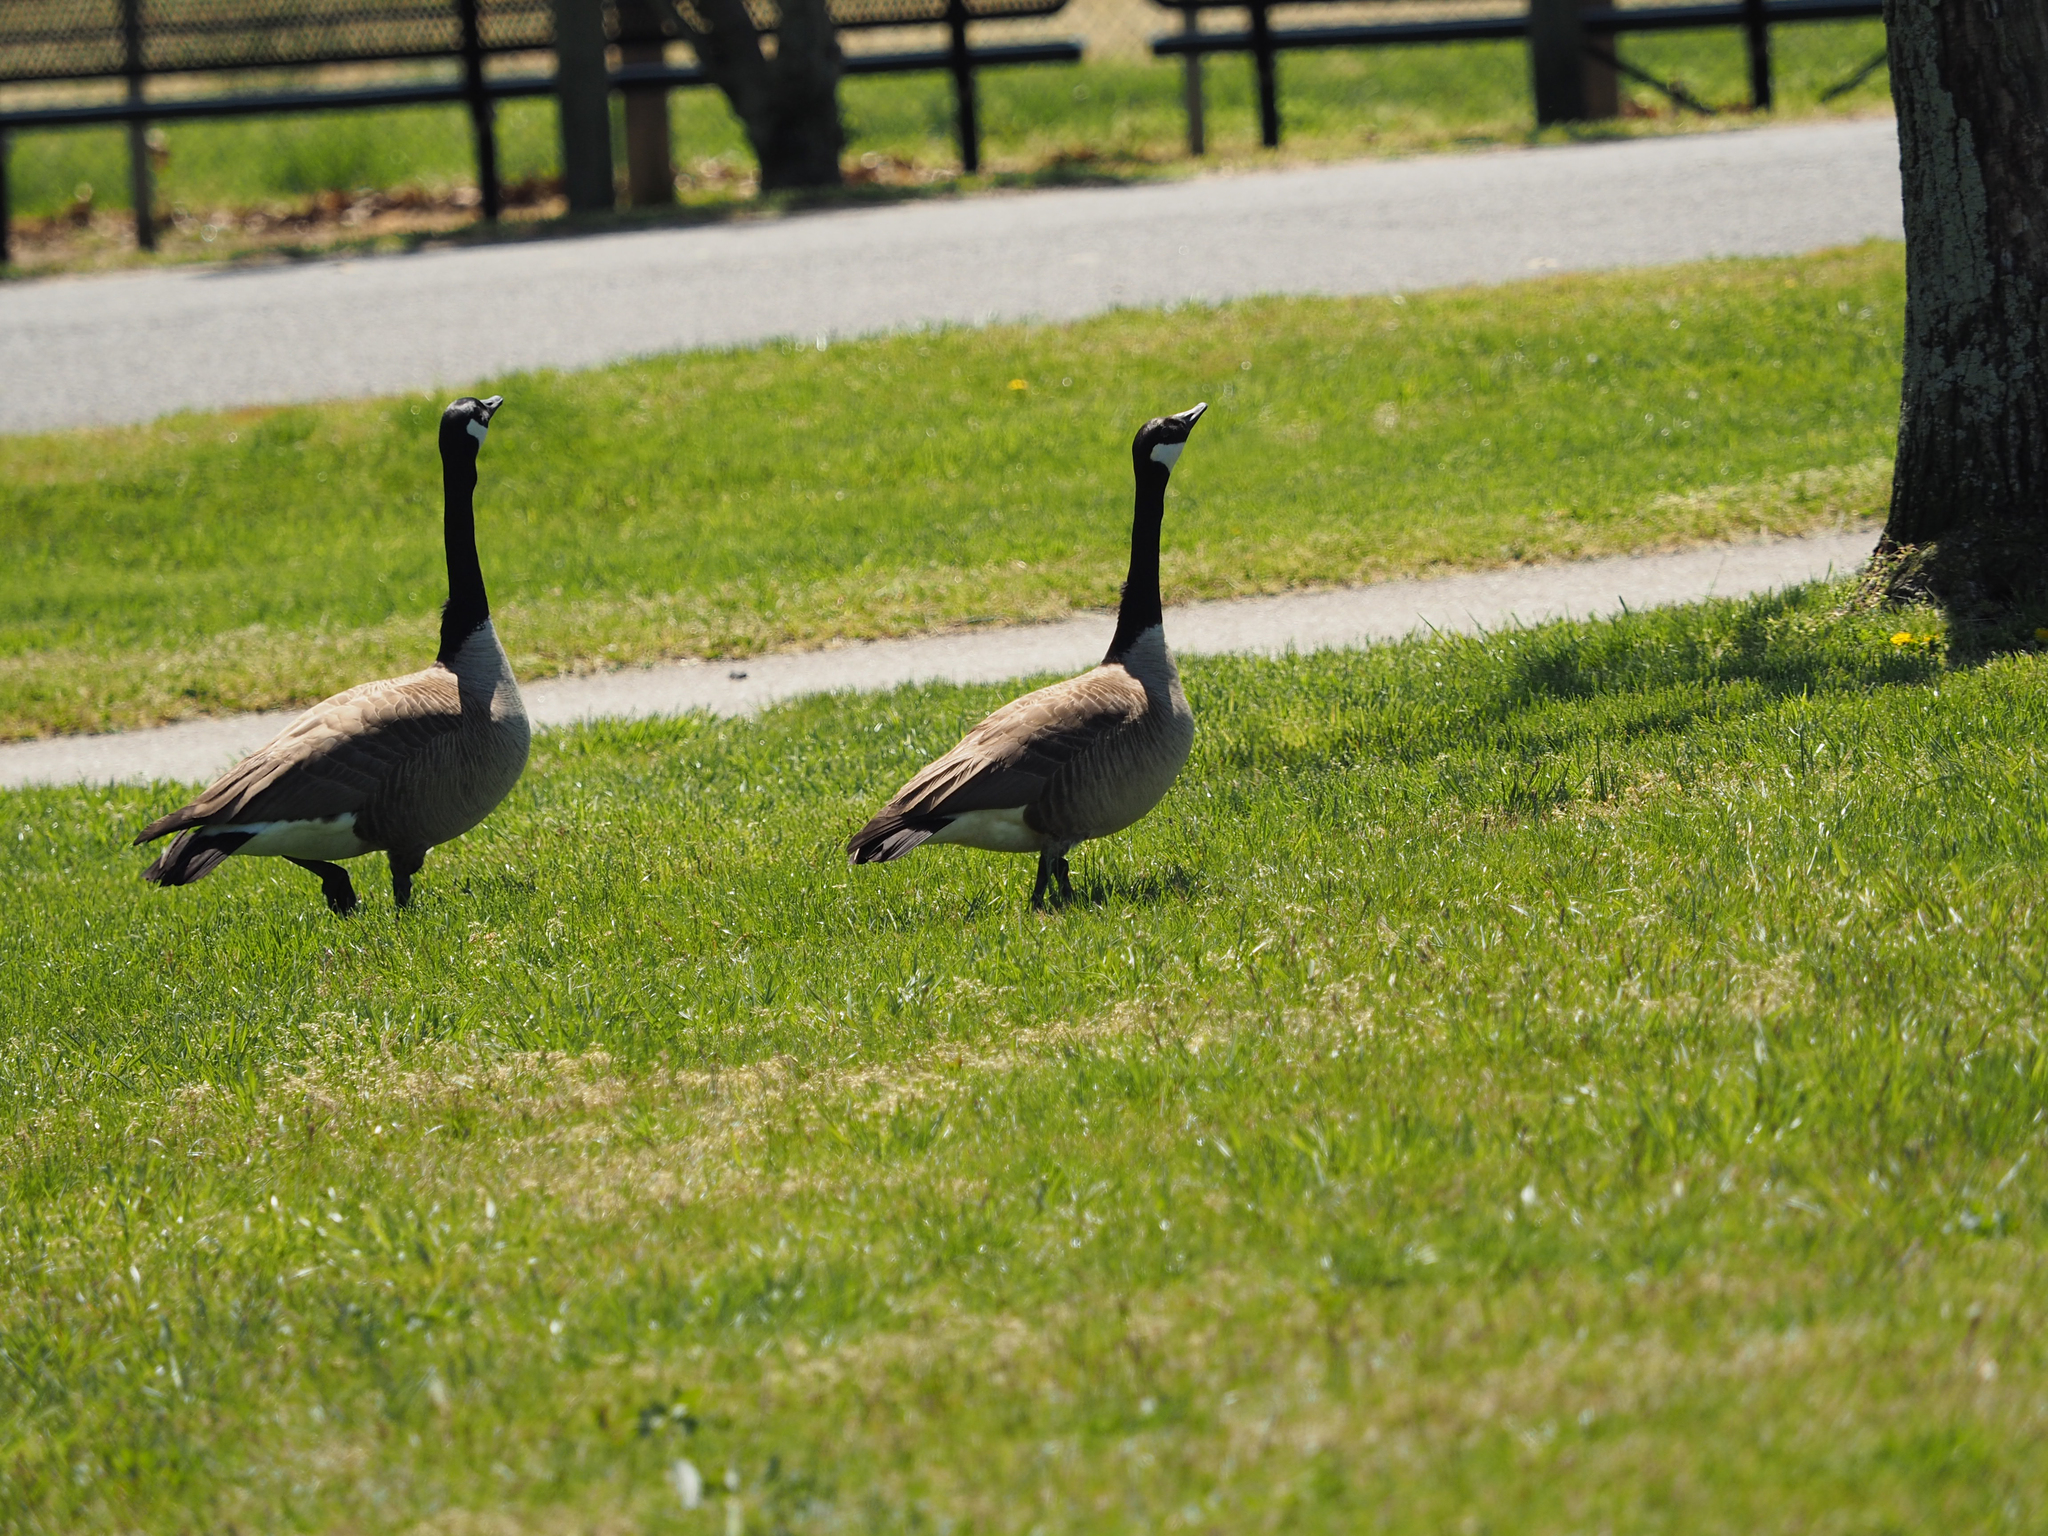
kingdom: Animalia
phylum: Chordata
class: Aves
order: Anseriformes
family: Anatidae
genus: Branta
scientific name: Branta canadensis
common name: Canada goose
